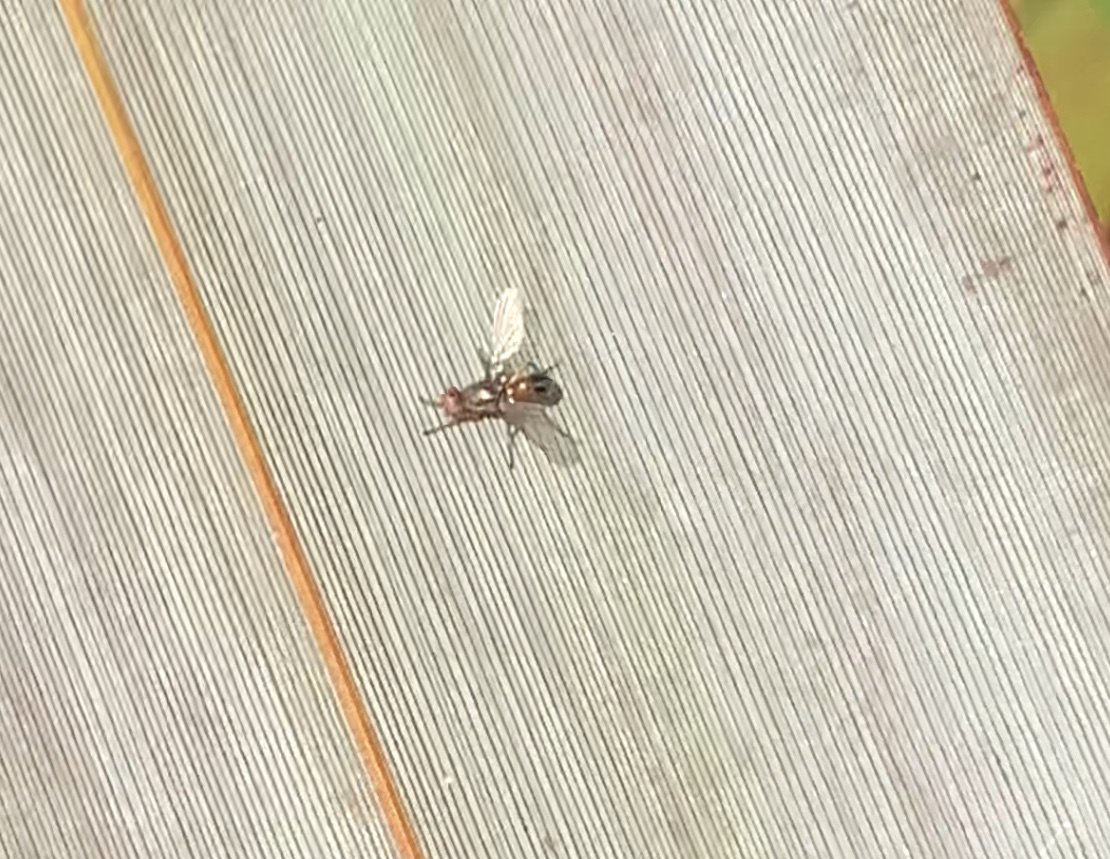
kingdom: Animalia
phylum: Arthropoda
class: Insecta
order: Diptera
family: Sepsidae
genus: Lasionemopoda
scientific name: Lasionemopoda hirsuta
